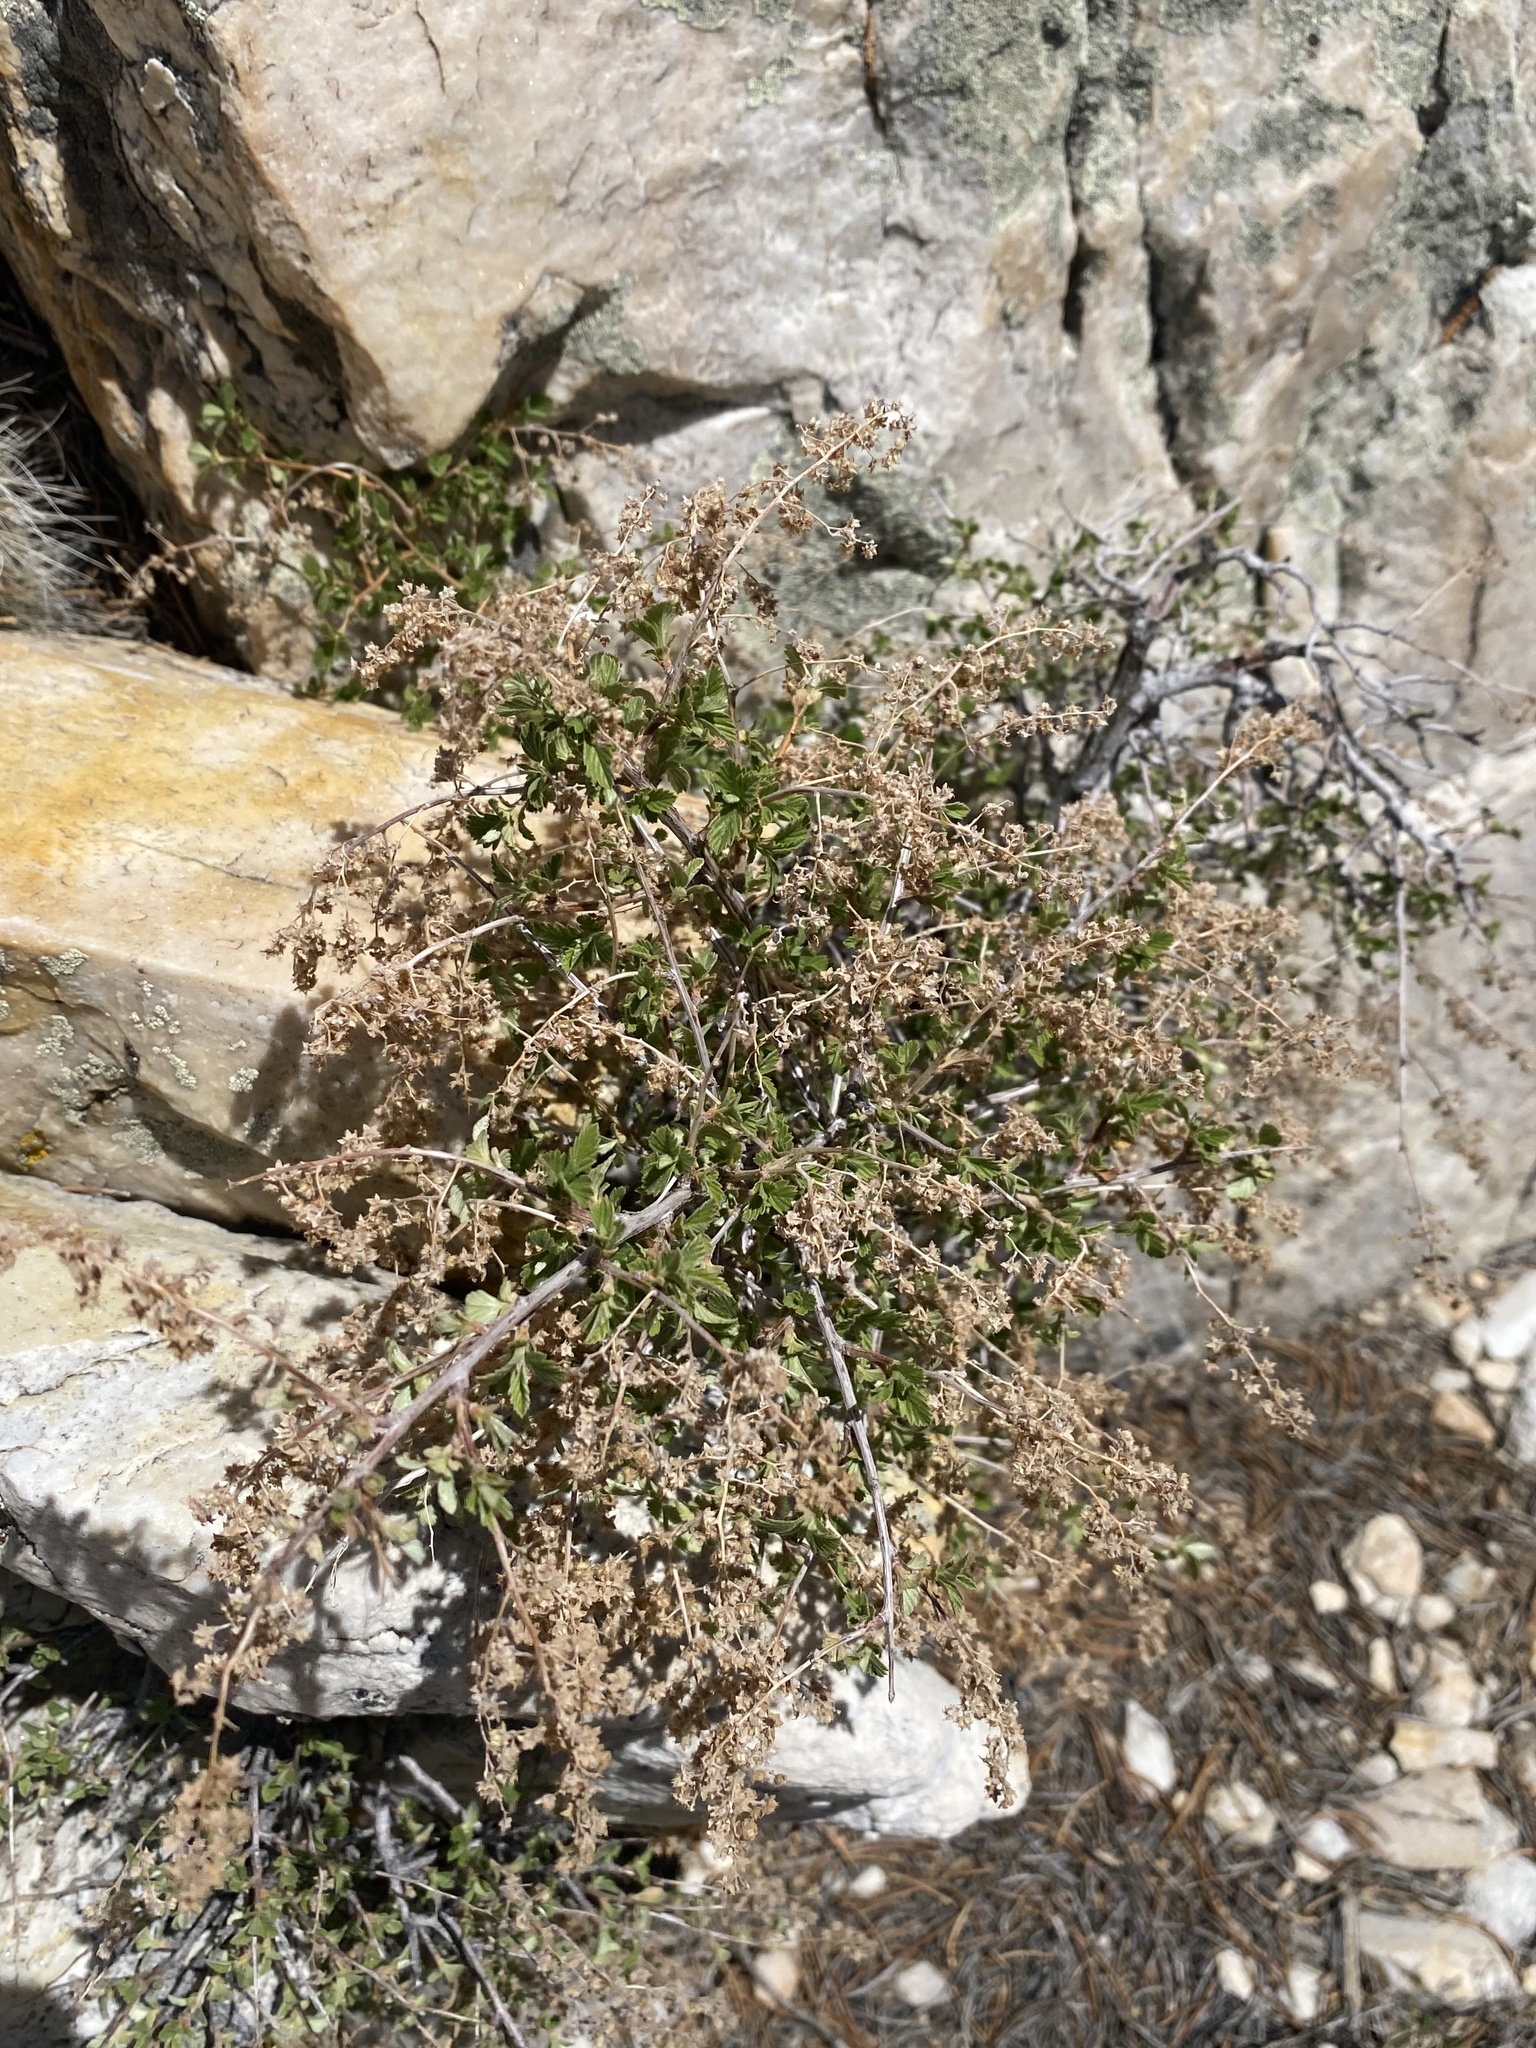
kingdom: Plantae
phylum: Tracheophyta
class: Magnoliopsida
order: Rosales
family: Rosaceae
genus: Holodiscus
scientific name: Holodiscus discolor
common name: Oceanspray
